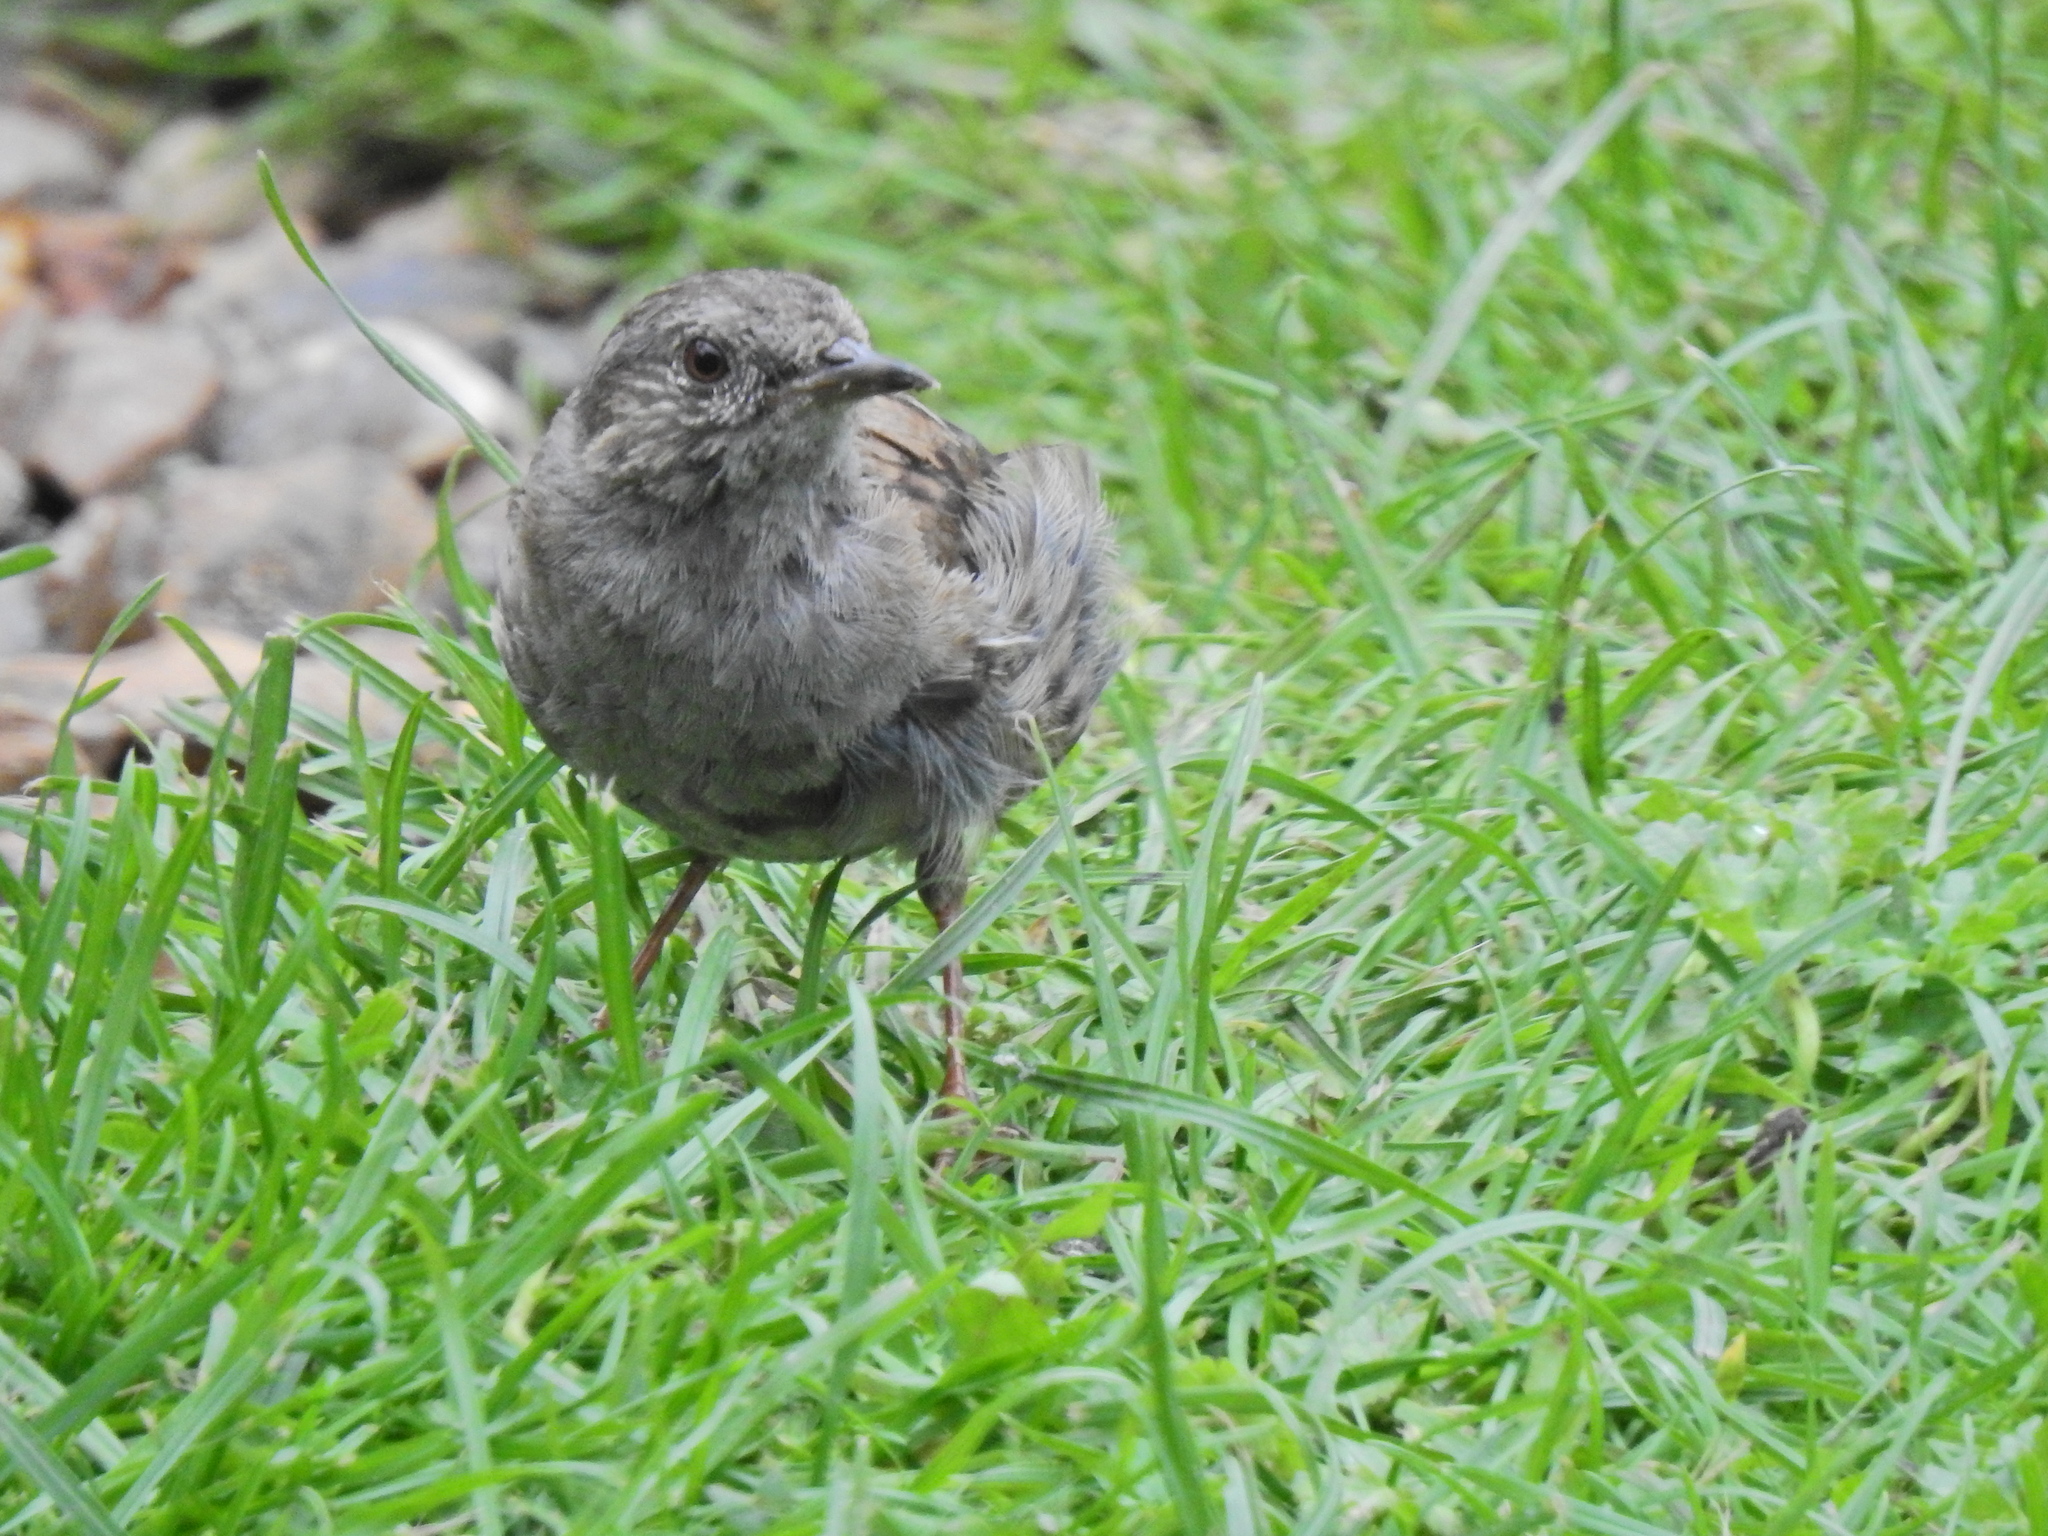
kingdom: Animalia
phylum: Chordata
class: Aves
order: Passeriformes
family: Prunellidae
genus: Prunella
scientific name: Prunella modularis
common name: Dunnock
